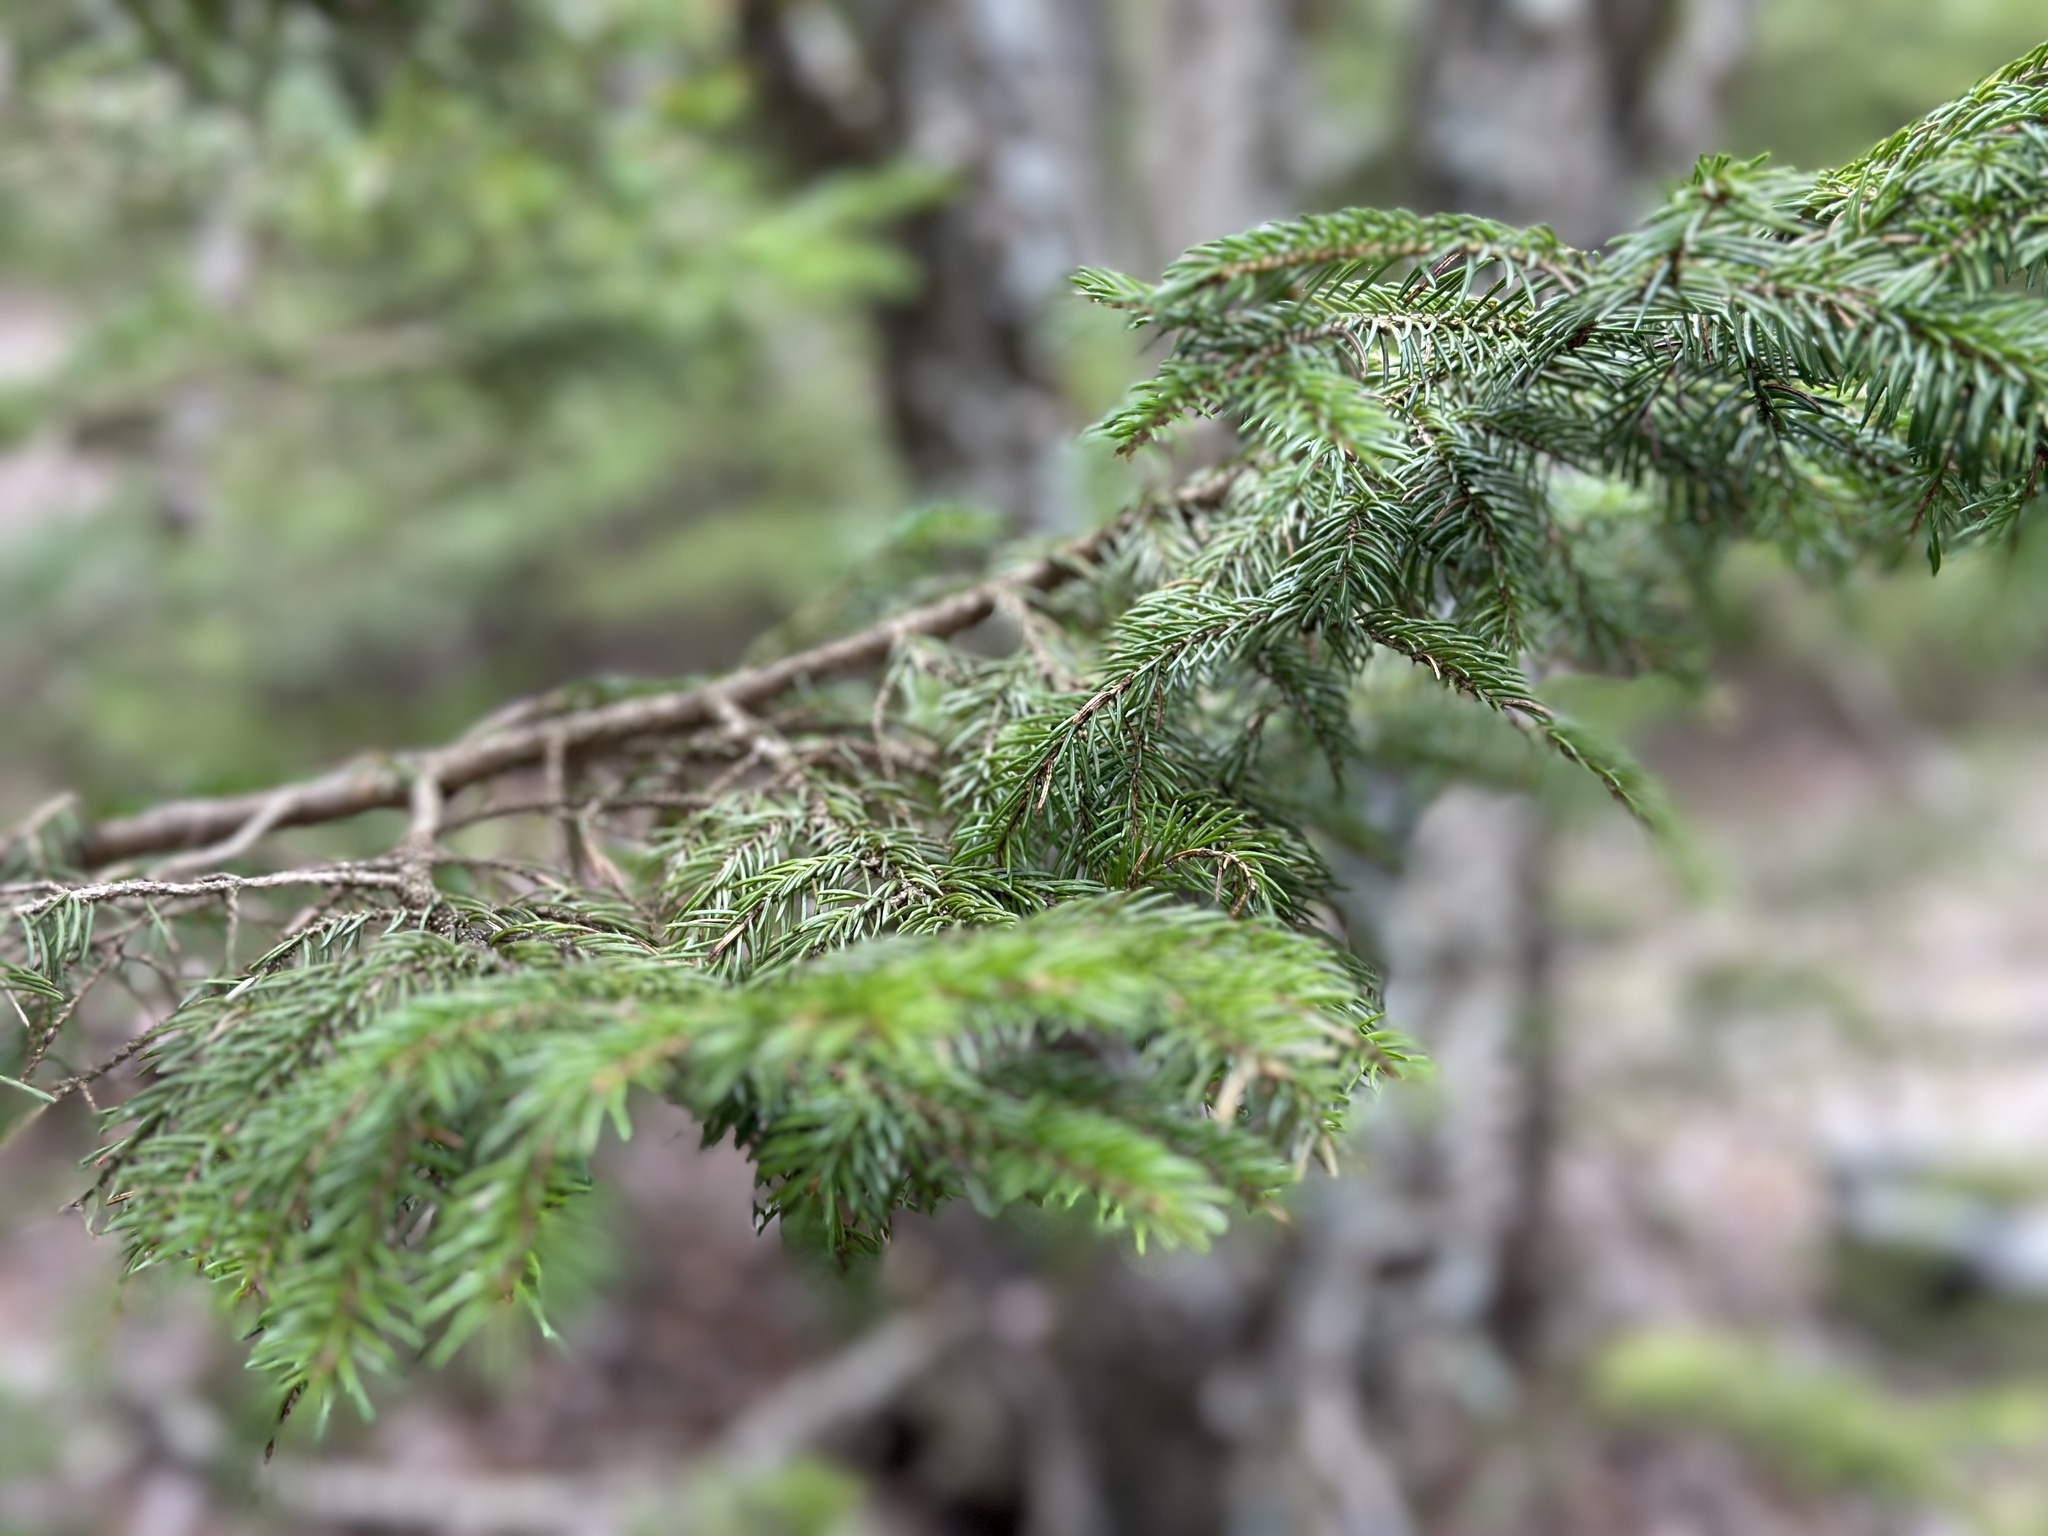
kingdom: Plantae
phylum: Tracheophyta
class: Pinopsida
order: Pinales
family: Pinaceae
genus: Picea
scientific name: Picea rubens
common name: Red spruce
